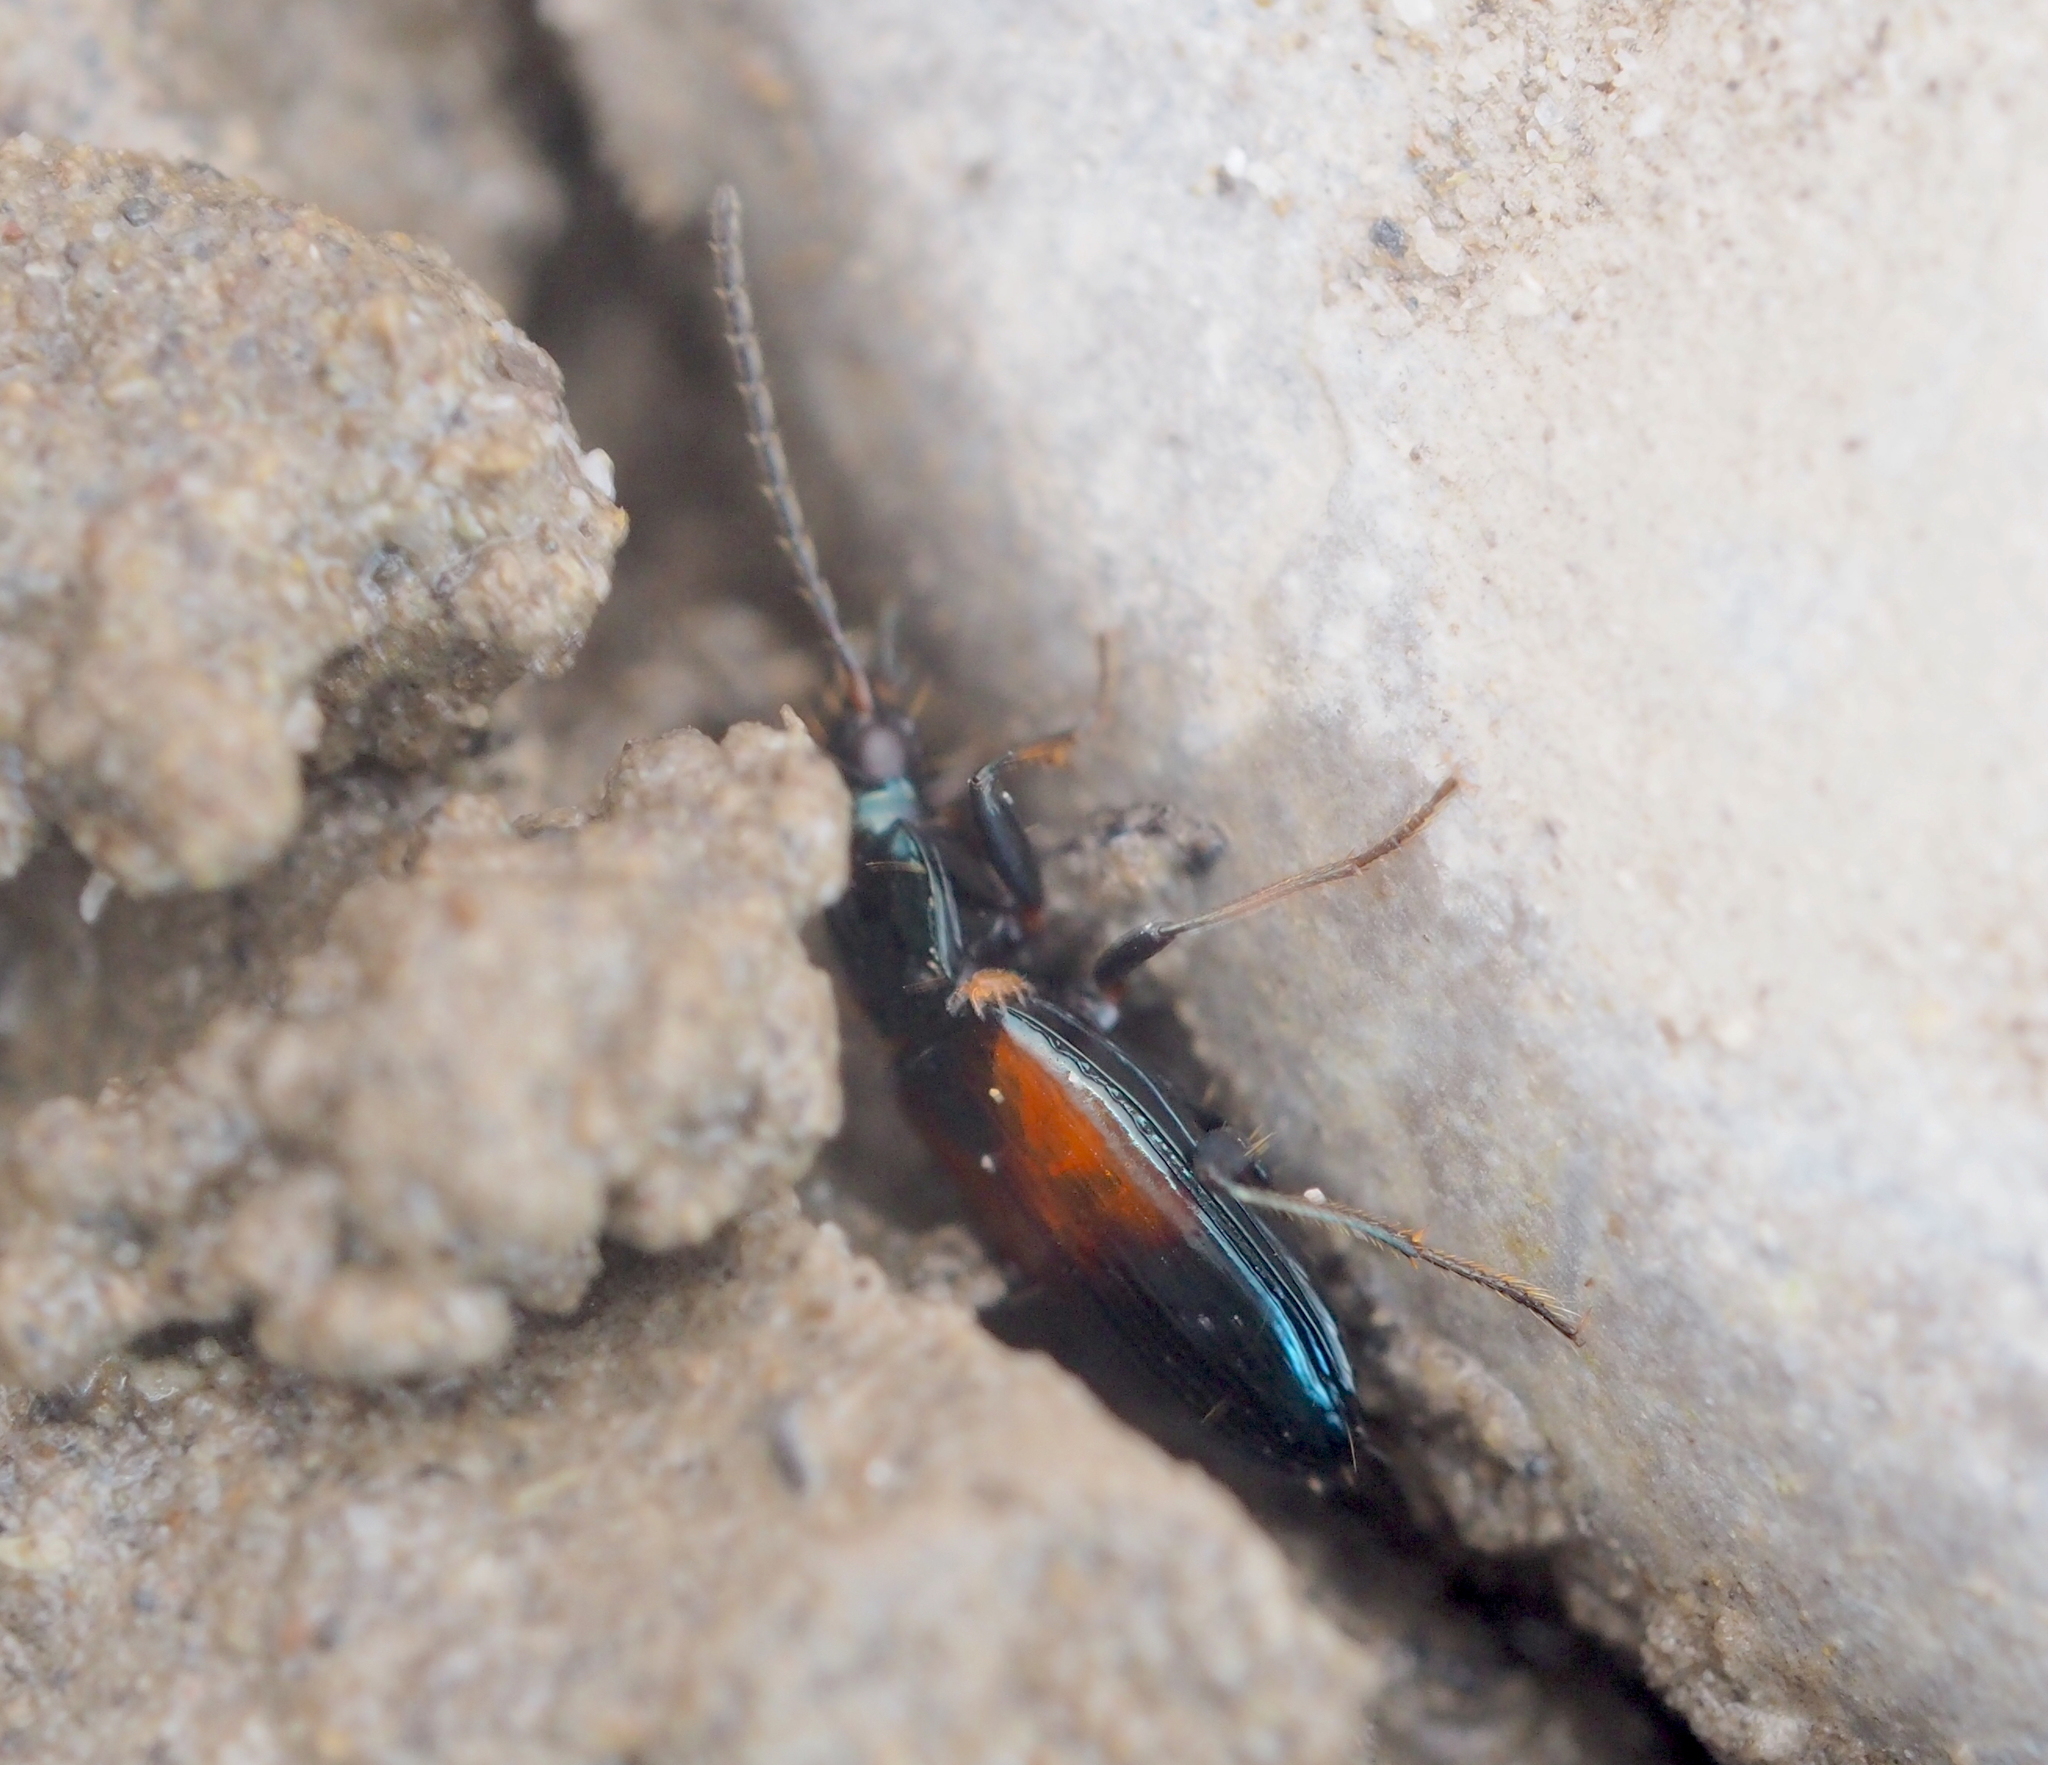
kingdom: Animalia
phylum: Arthropoda
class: Insecta
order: Coleoptera
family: Carabidae
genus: Bembidion
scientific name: Bembidion varicolor
